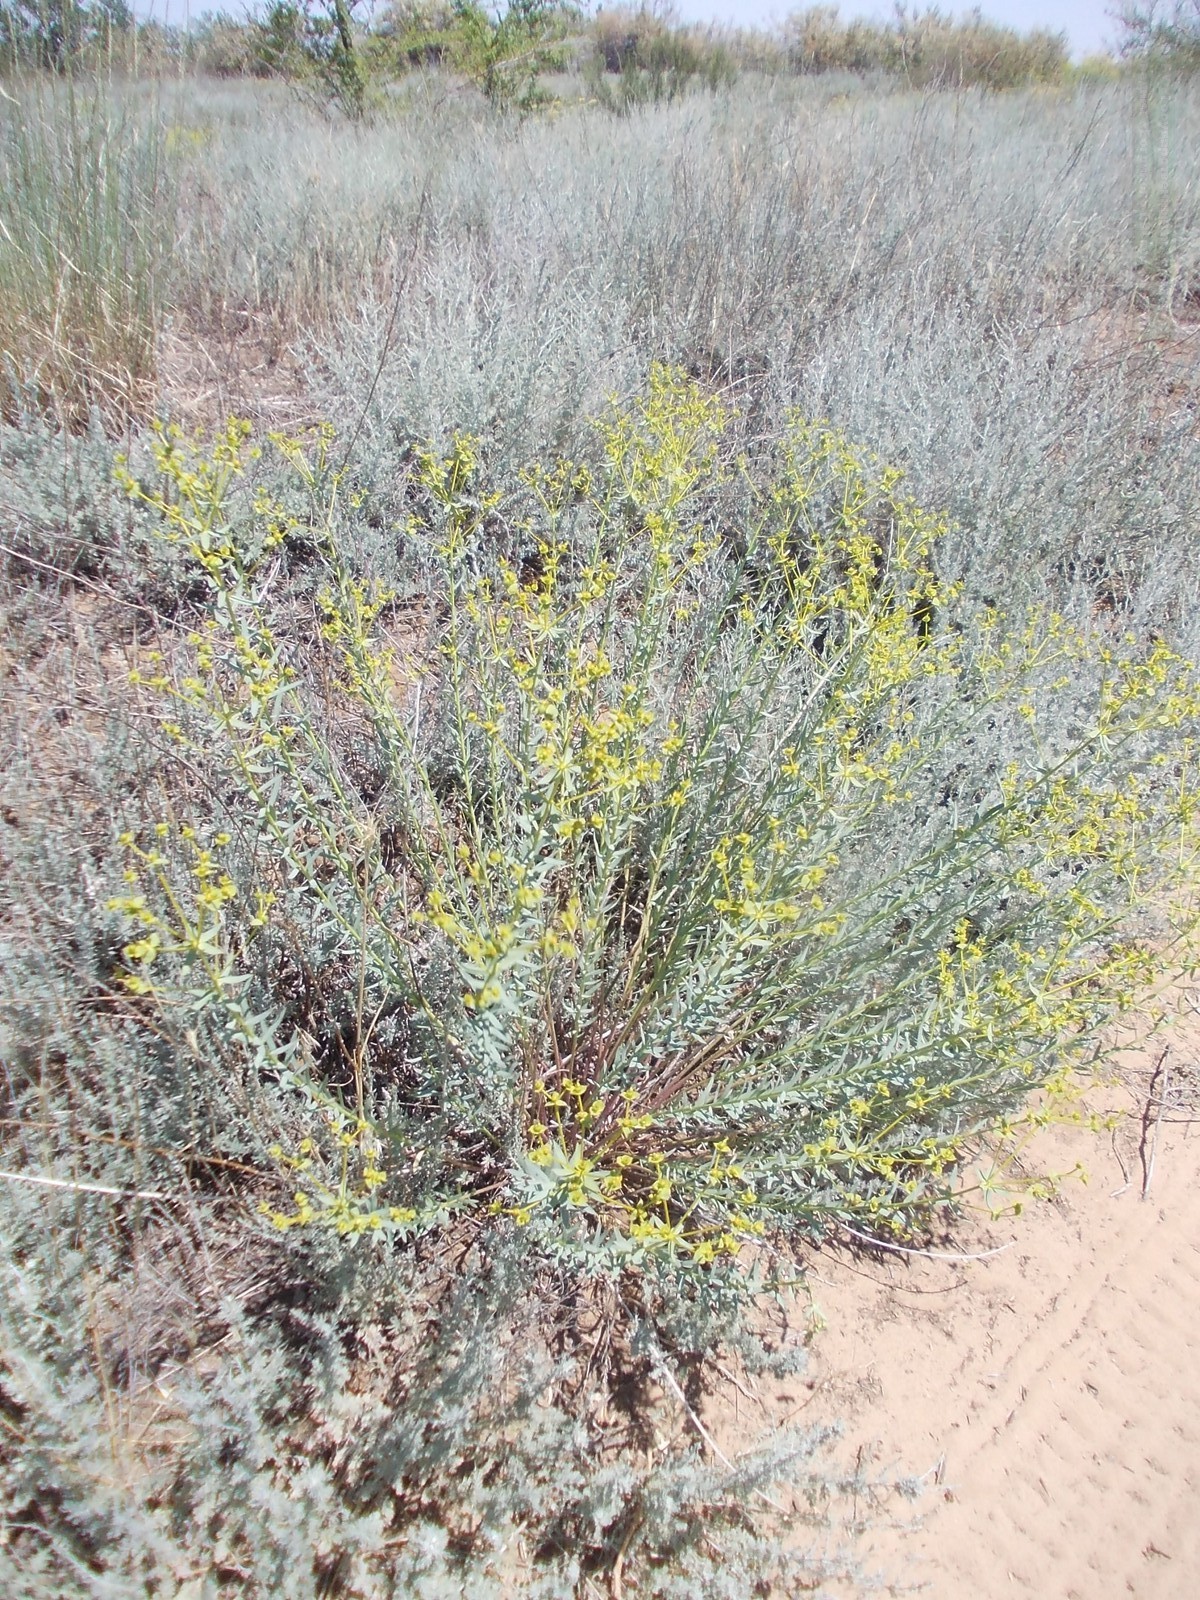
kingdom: Plantae
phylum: Tracheophyta
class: Magnoliopsida
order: Malpighiales
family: Euphorbiaceae
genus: Euphorbia
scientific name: Euphorbia seguieriana
